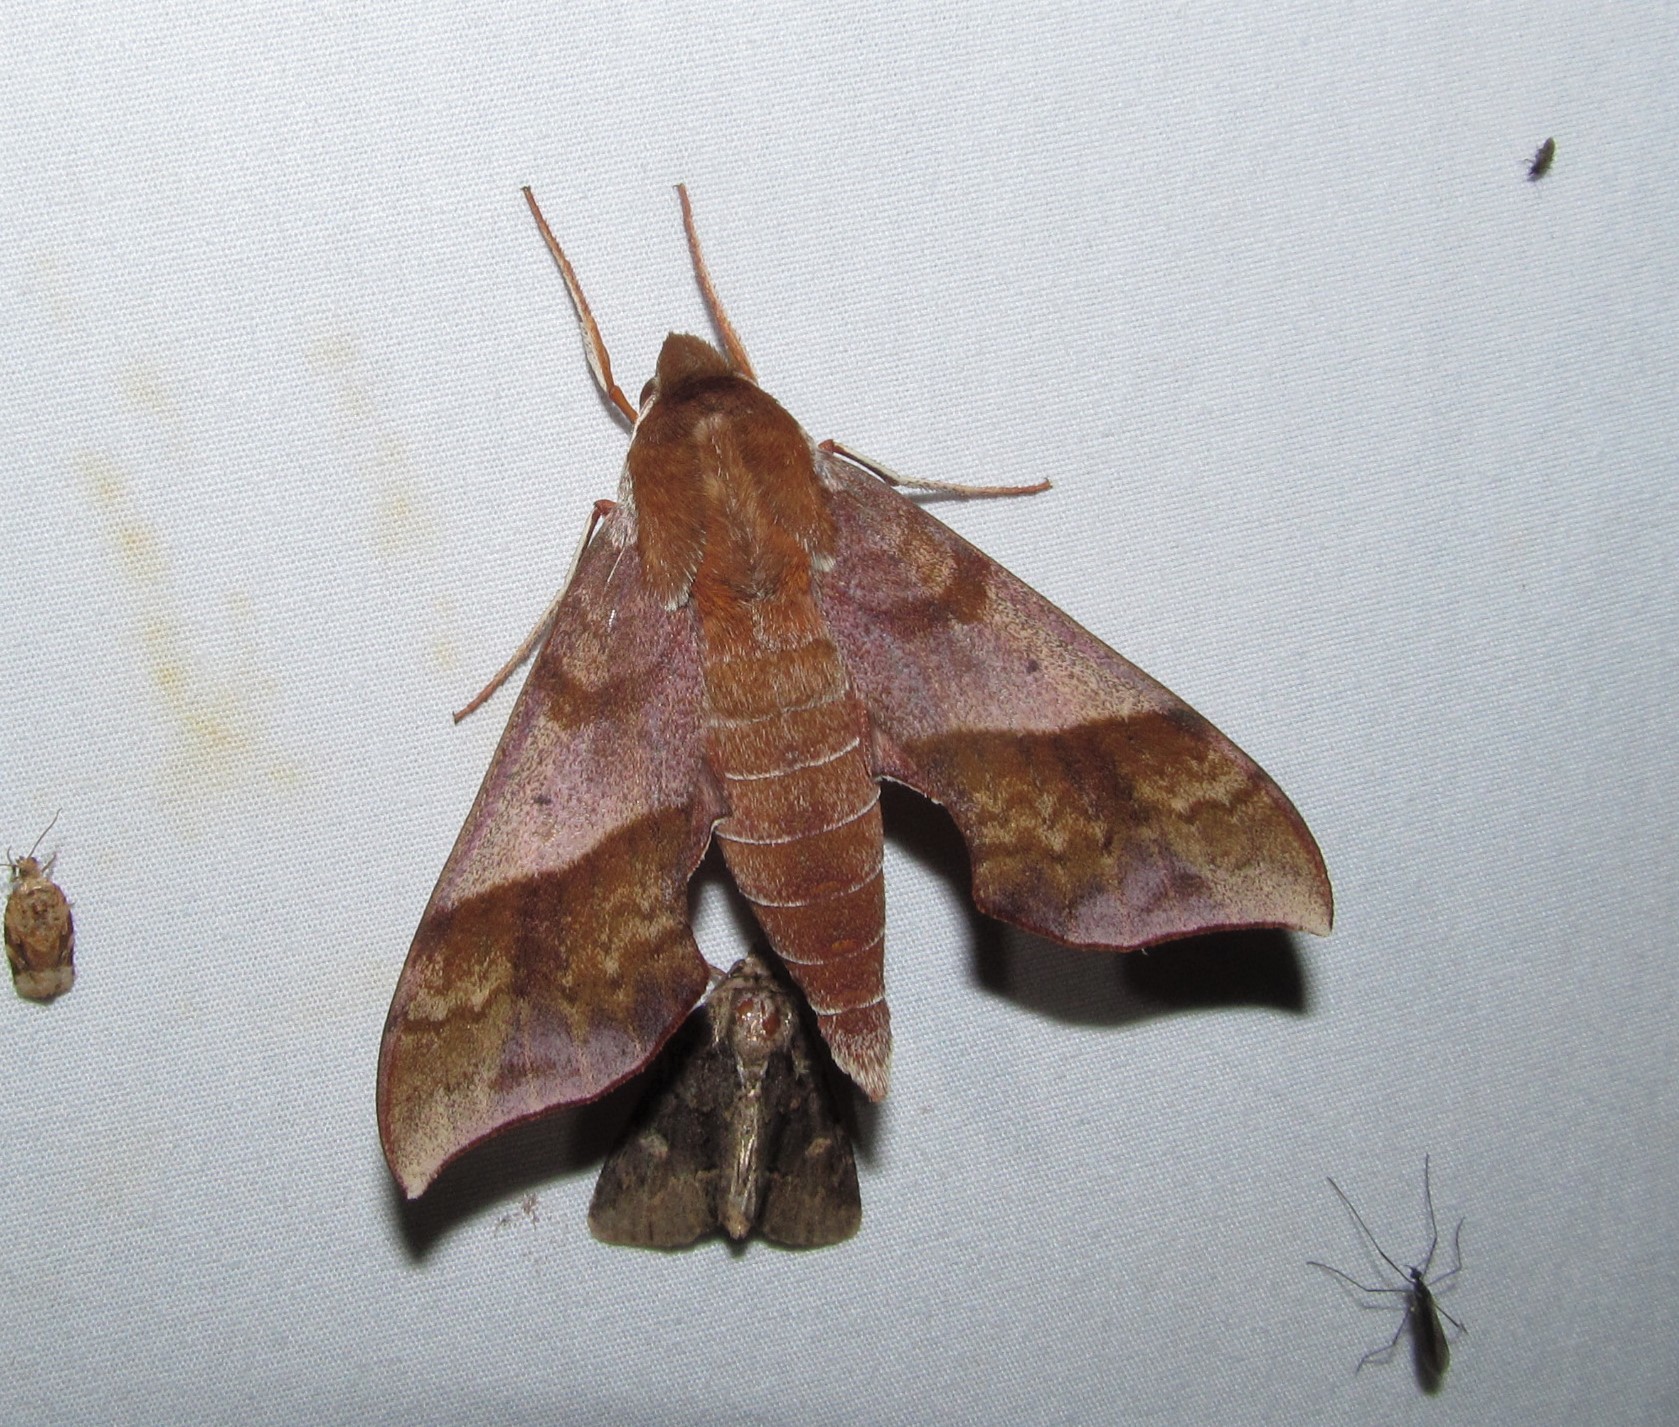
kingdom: Animalia
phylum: Arthropoda
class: Insecta
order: Lepidoptera
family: Sphingidae
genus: Darapsa
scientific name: Darapsa choerilus
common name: Azalea sphinx
